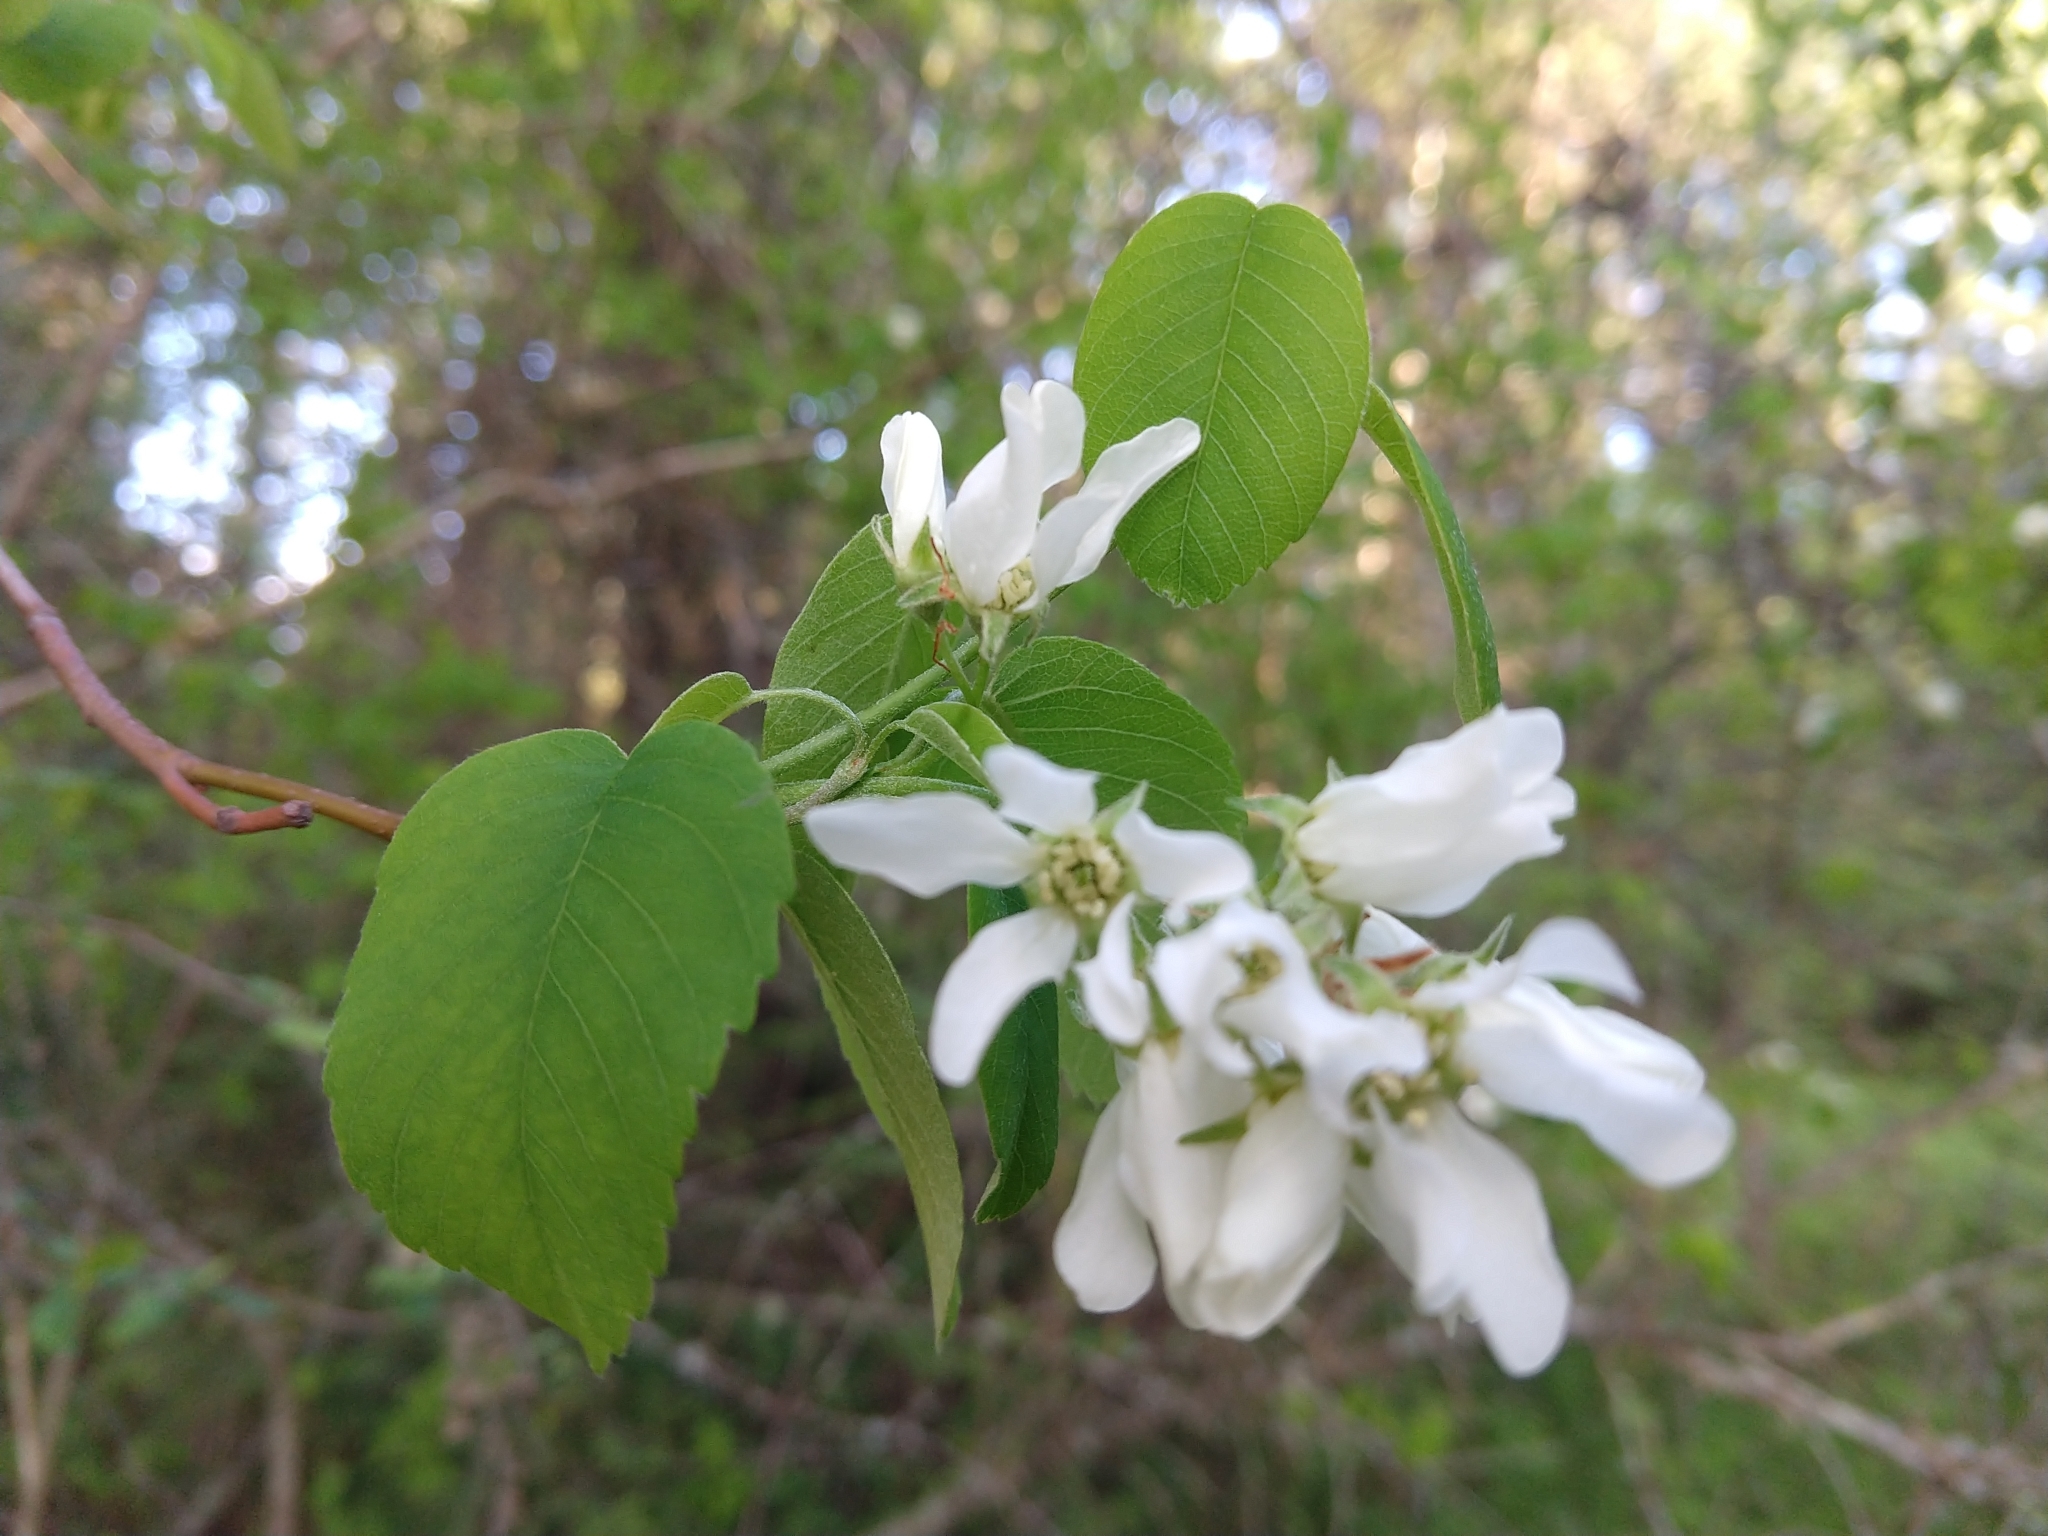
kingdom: Plantae
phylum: Tracheophyta
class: Magnoliopsida
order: Rosales
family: Rosaceae
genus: Amelanchier
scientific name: Amelanchier alnifolia
